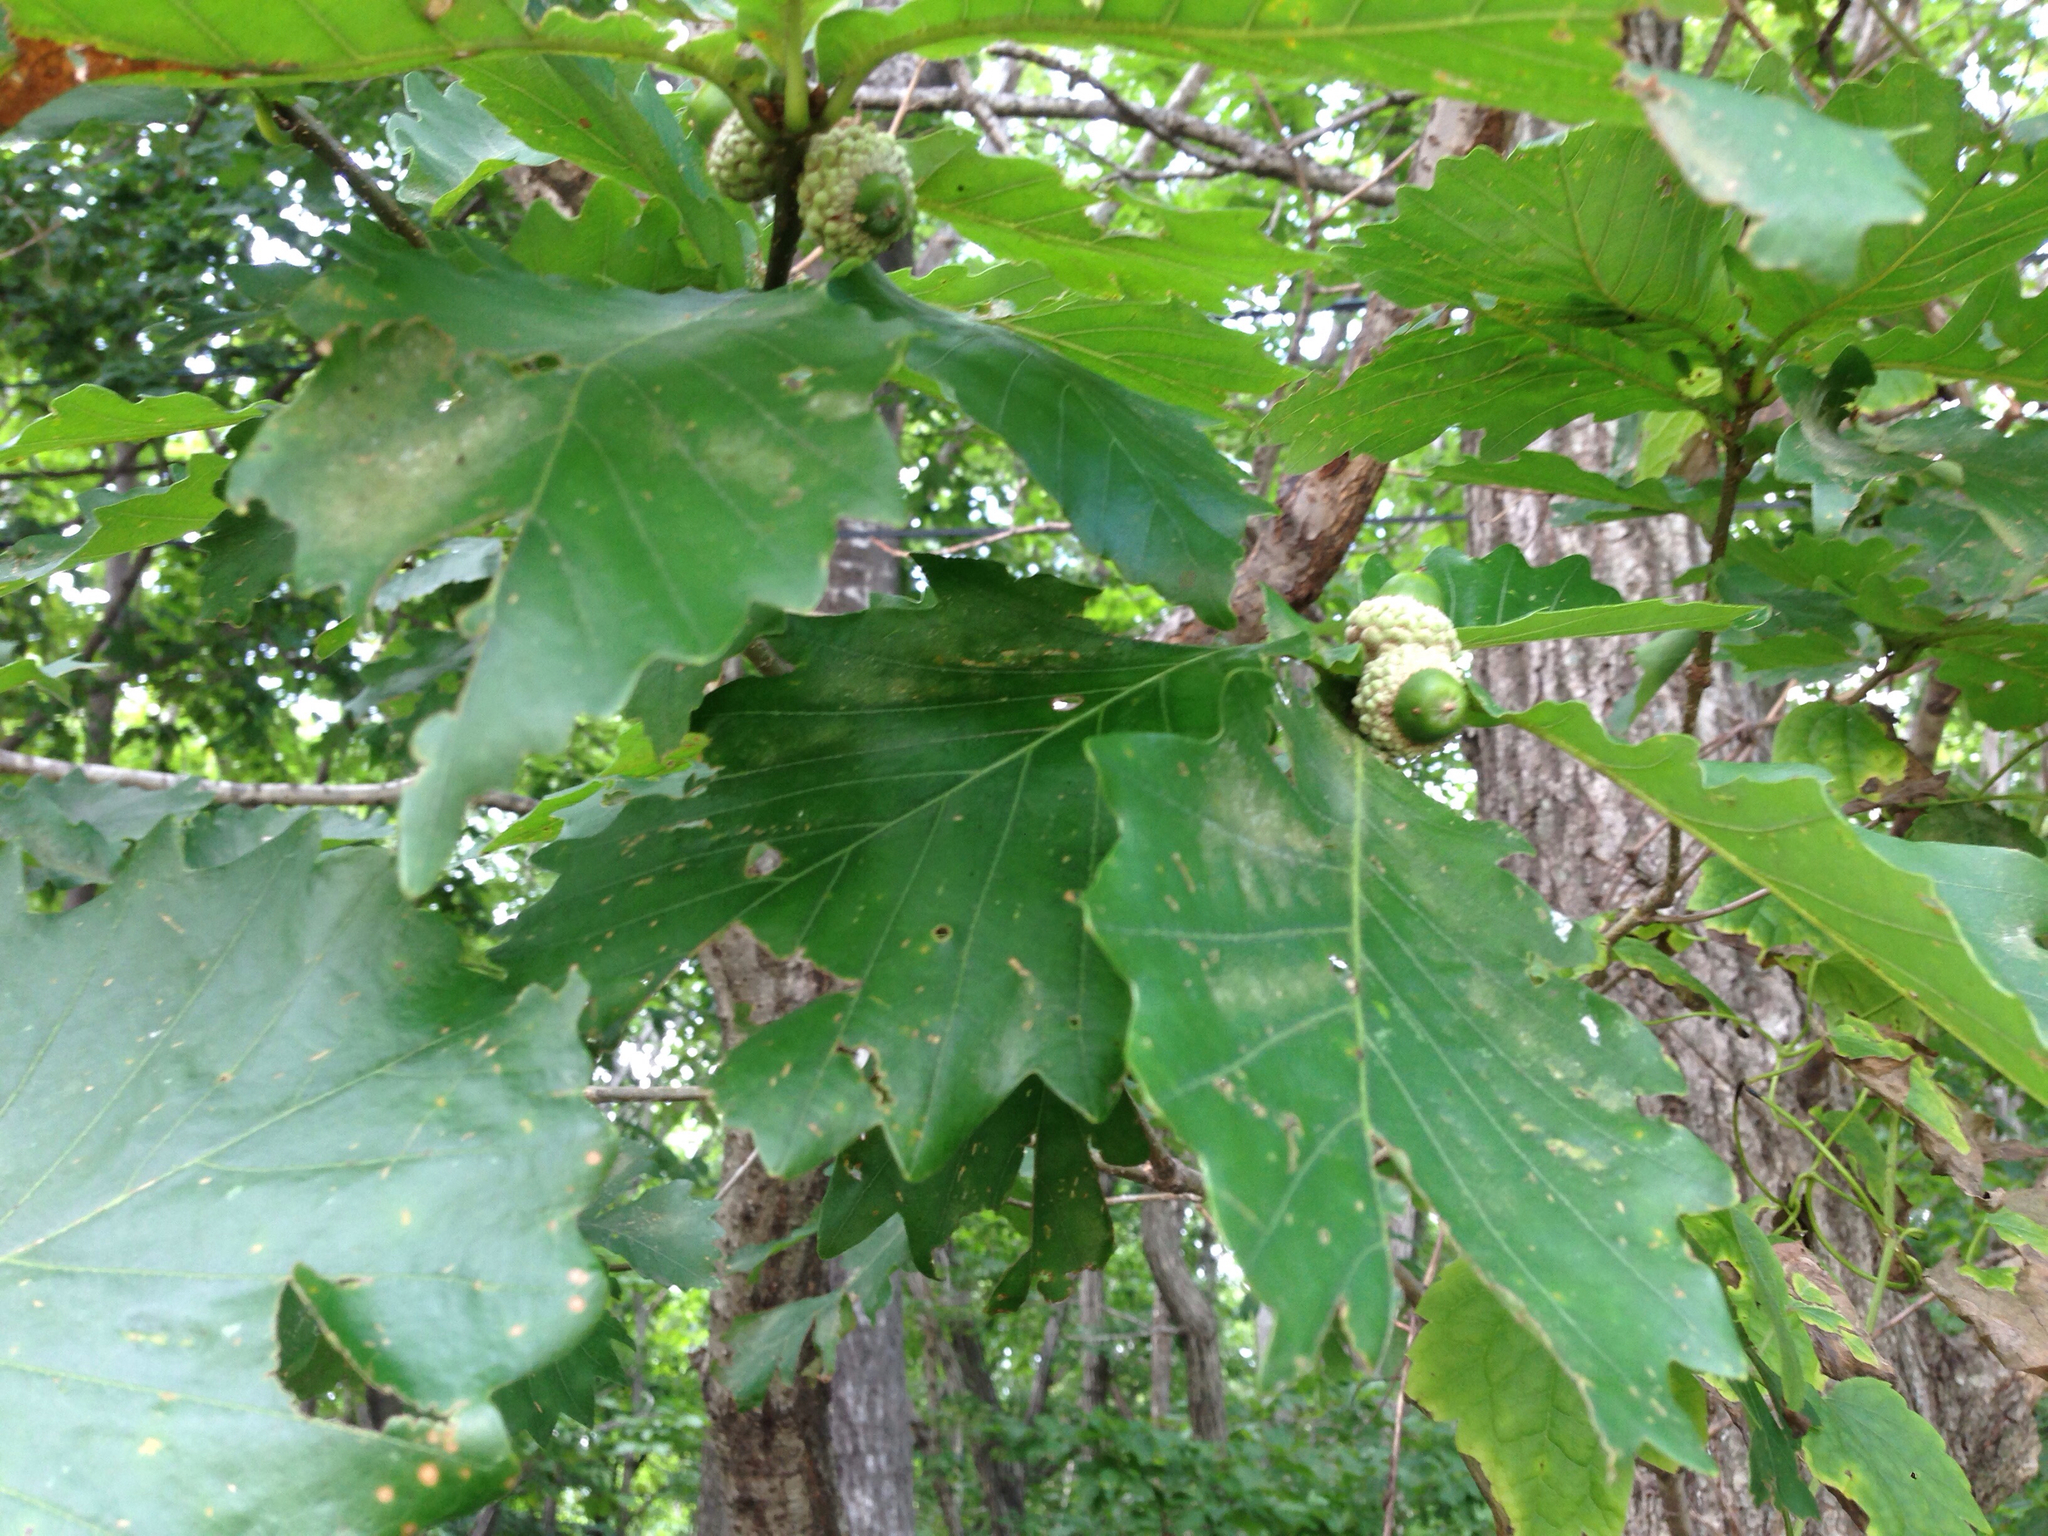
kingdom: Plantae
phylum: Tracheophyta
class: Magnoliopsida
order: Fagales
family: Fagaceae
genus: Quercus
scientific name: Quercus mongolica
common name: Mongolian oak
